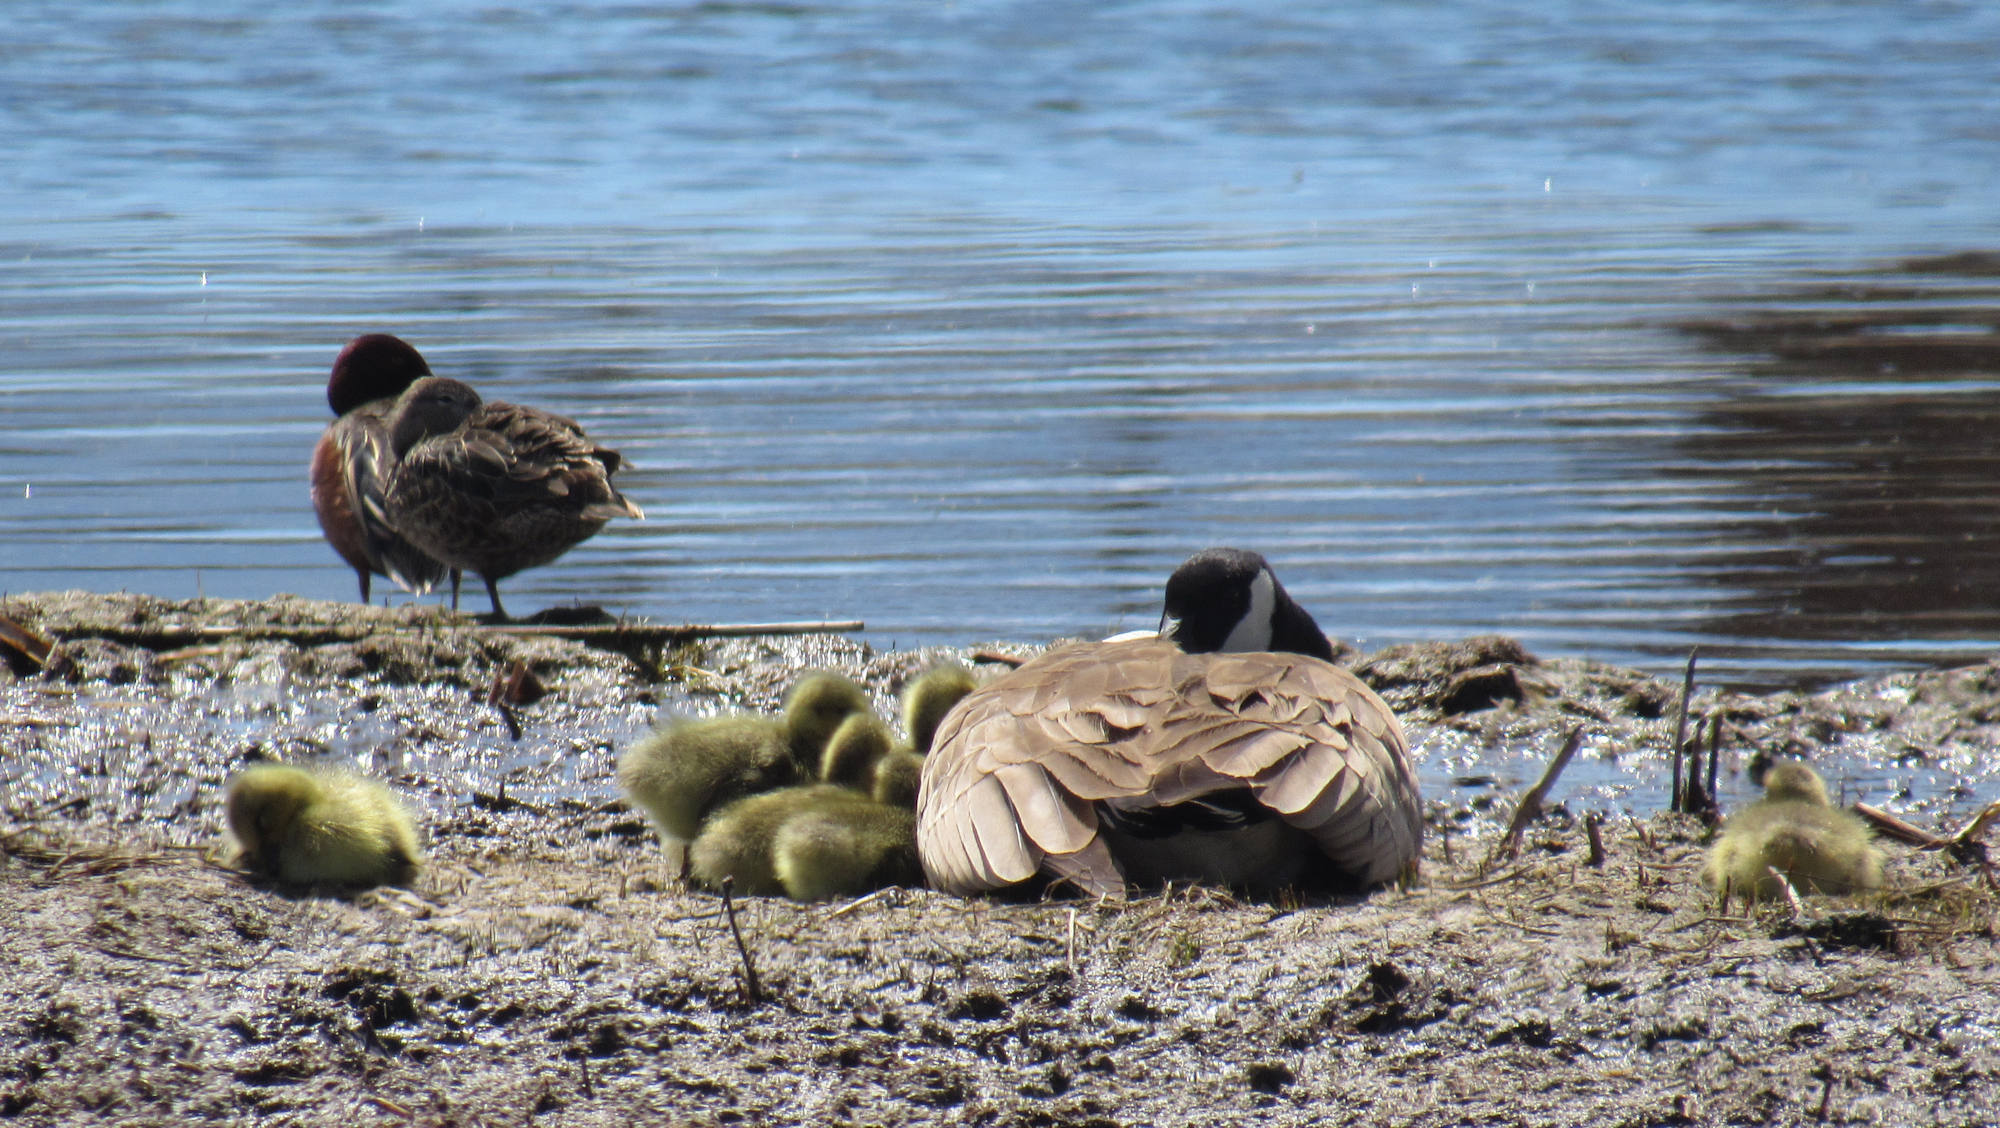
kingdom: Animalia
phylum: Chordata
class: Aves
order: Anseriformes
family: Anatidae
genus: Spatula
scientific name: Spatula cyanoptera
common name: Cinnamon teal
